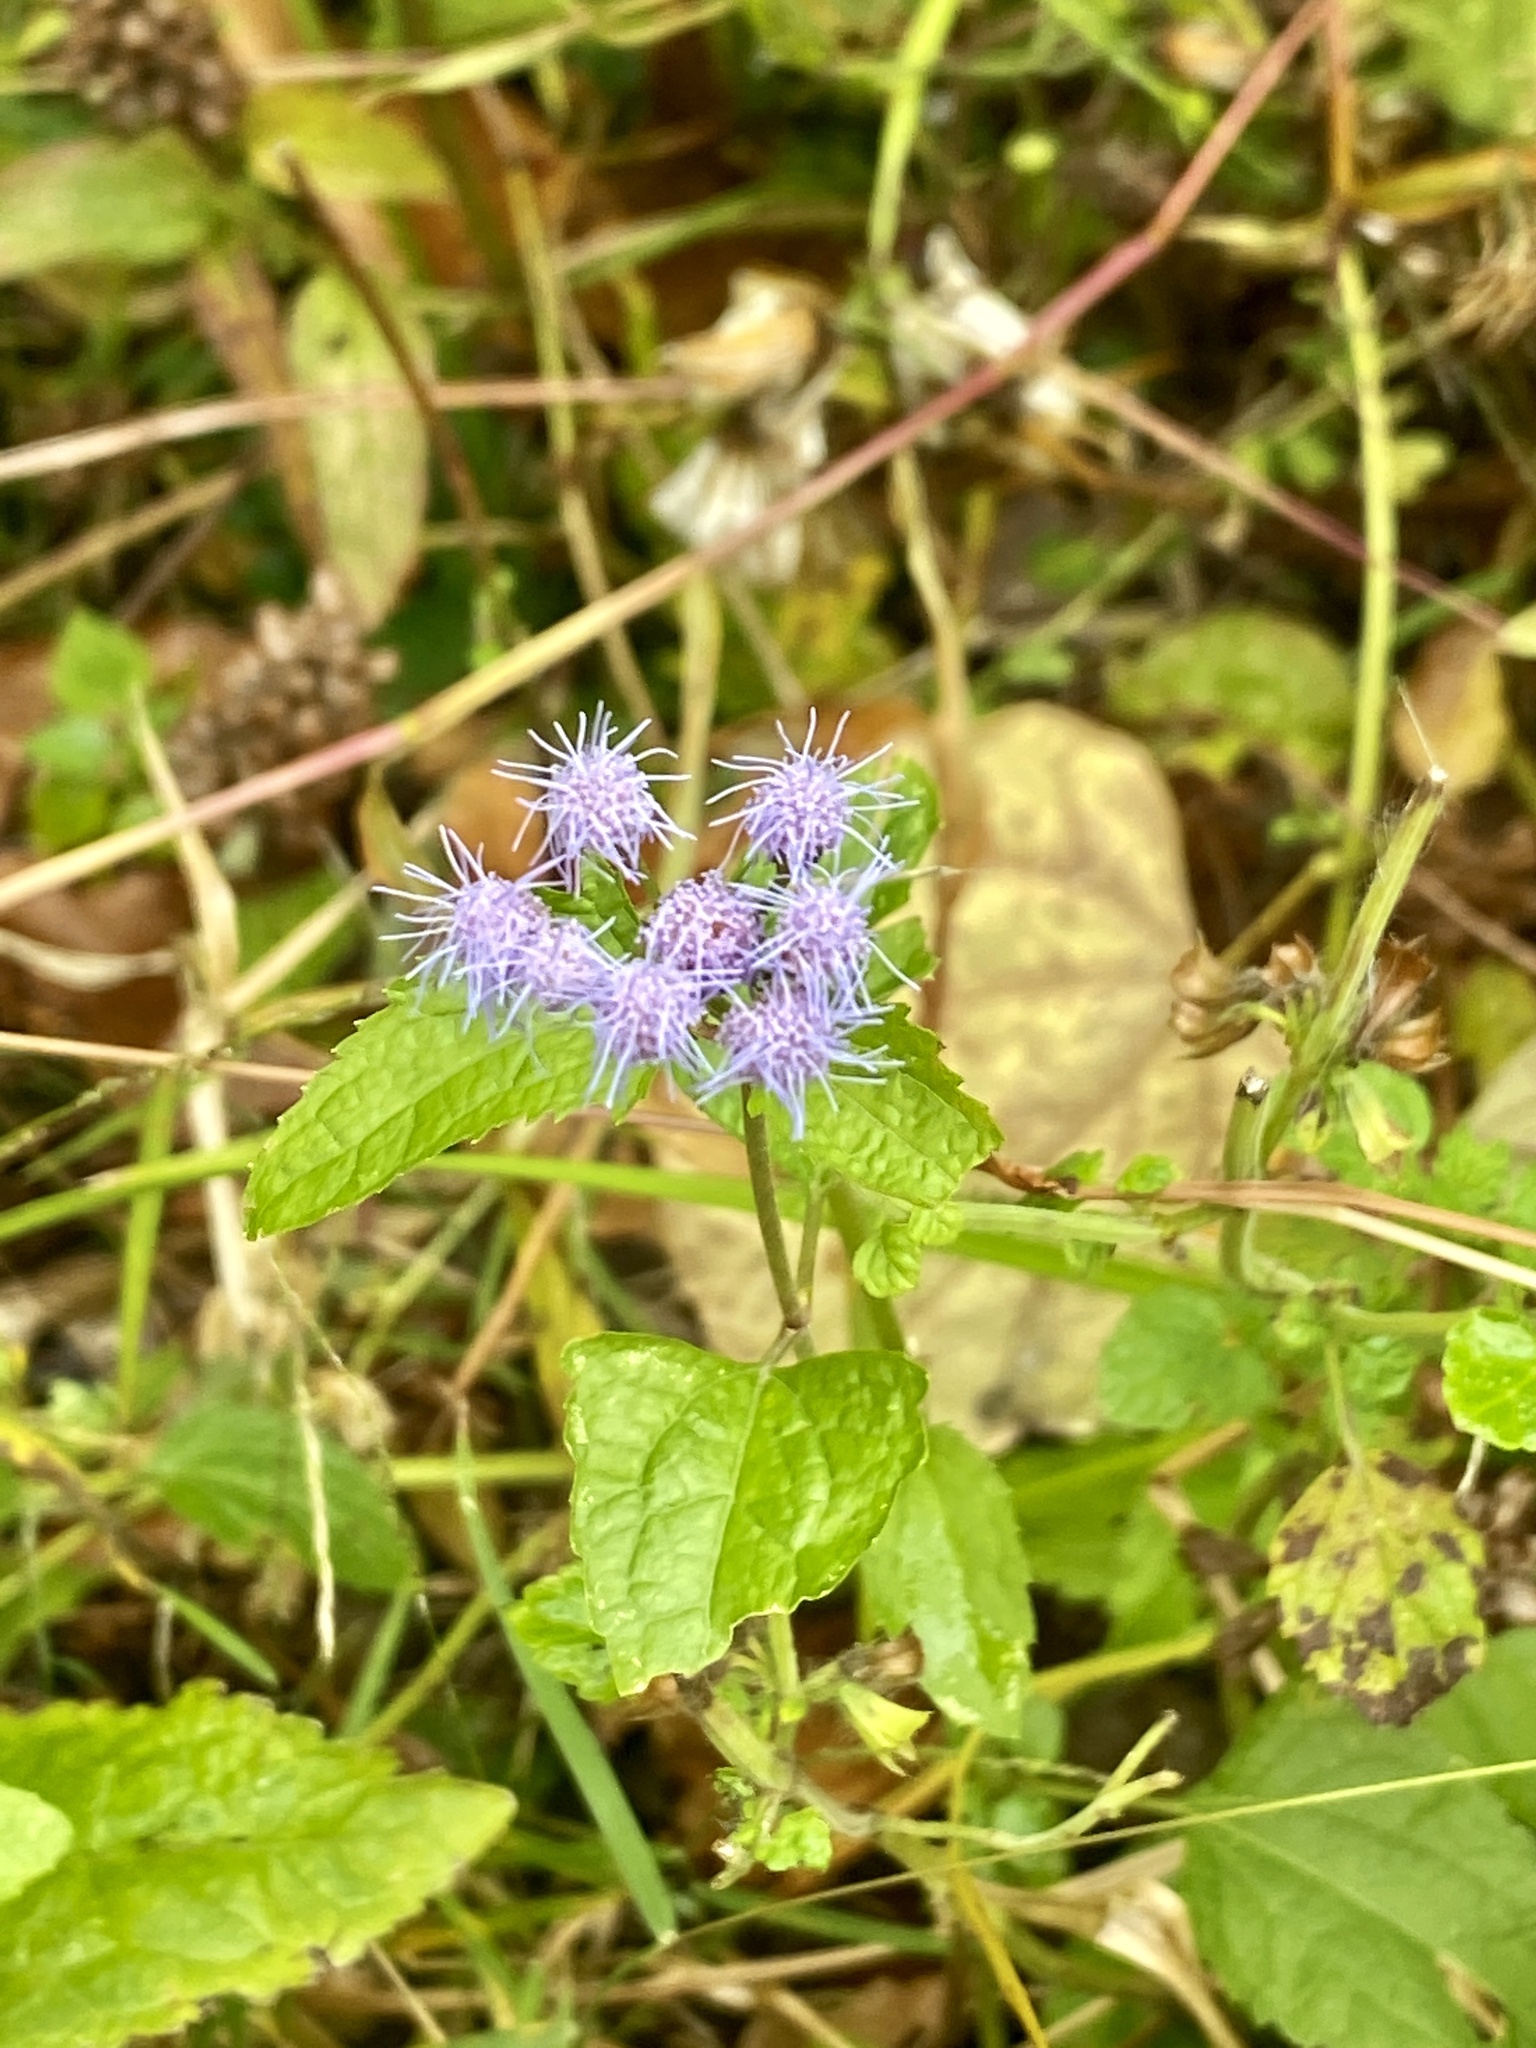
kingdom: Plantae
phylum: Tracheophyta
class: Magnoliopsida
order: Asterales
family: Asteraceae
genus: Conoclinium
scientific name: Conoclinium coelestinum
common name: Blue mistflower
